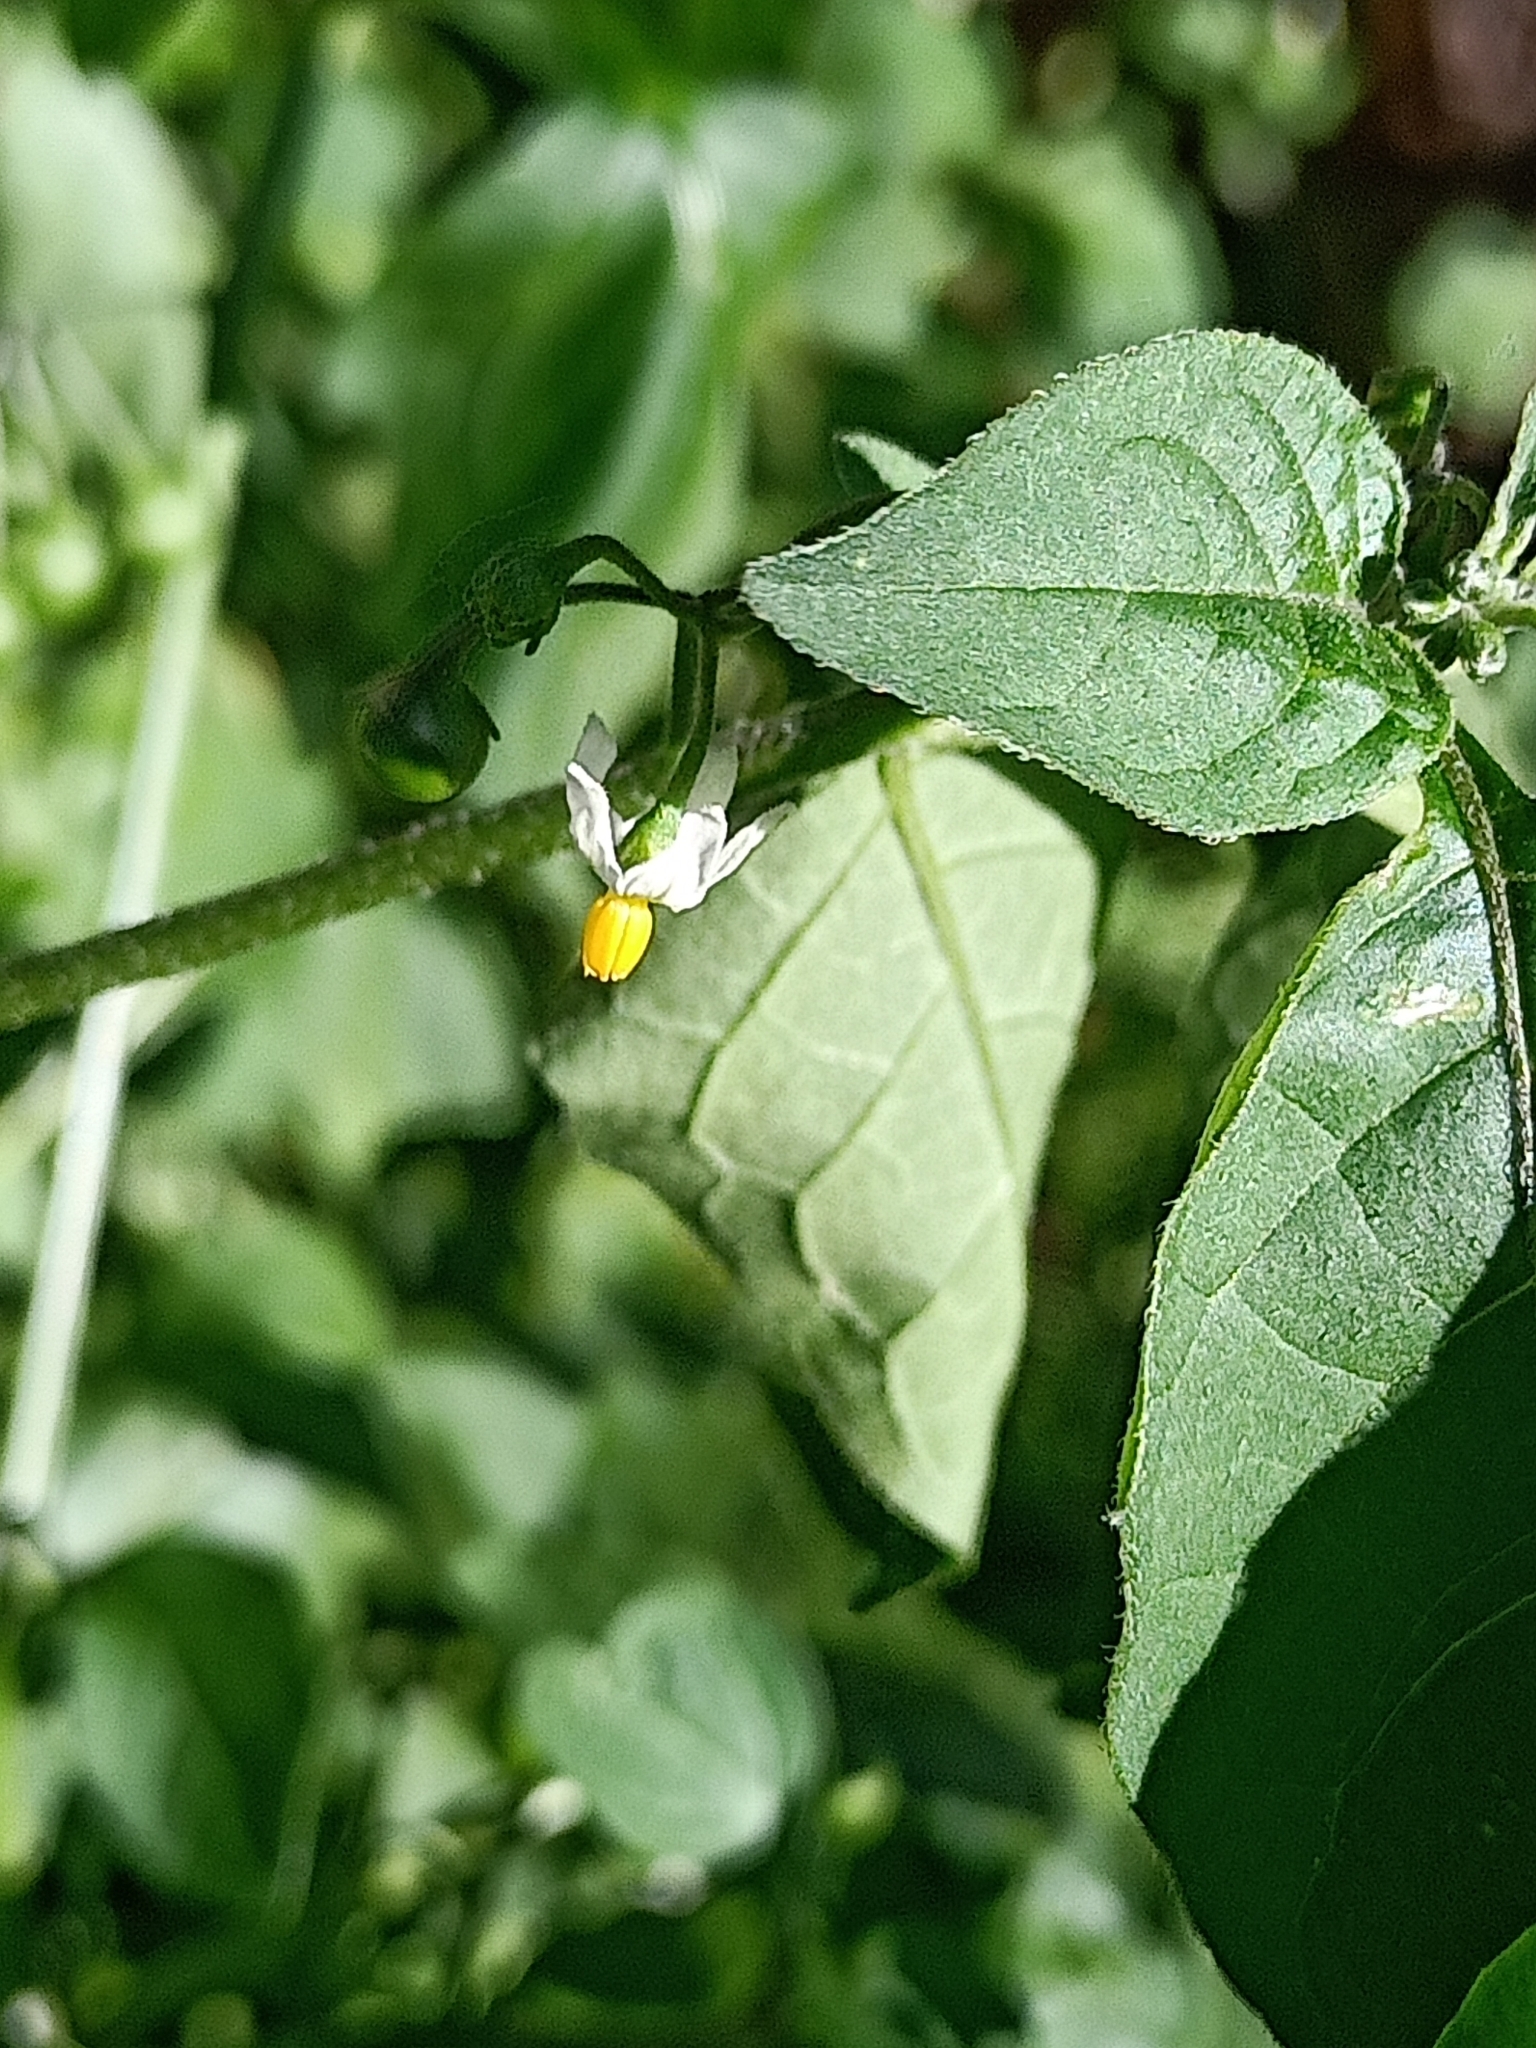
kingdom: Plantae
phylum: Tracheophyta
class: Magnoliopsida
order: Solanales
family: Solanaceae
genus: Solanum
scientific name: Solanum nigrum
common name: Black nightshade
